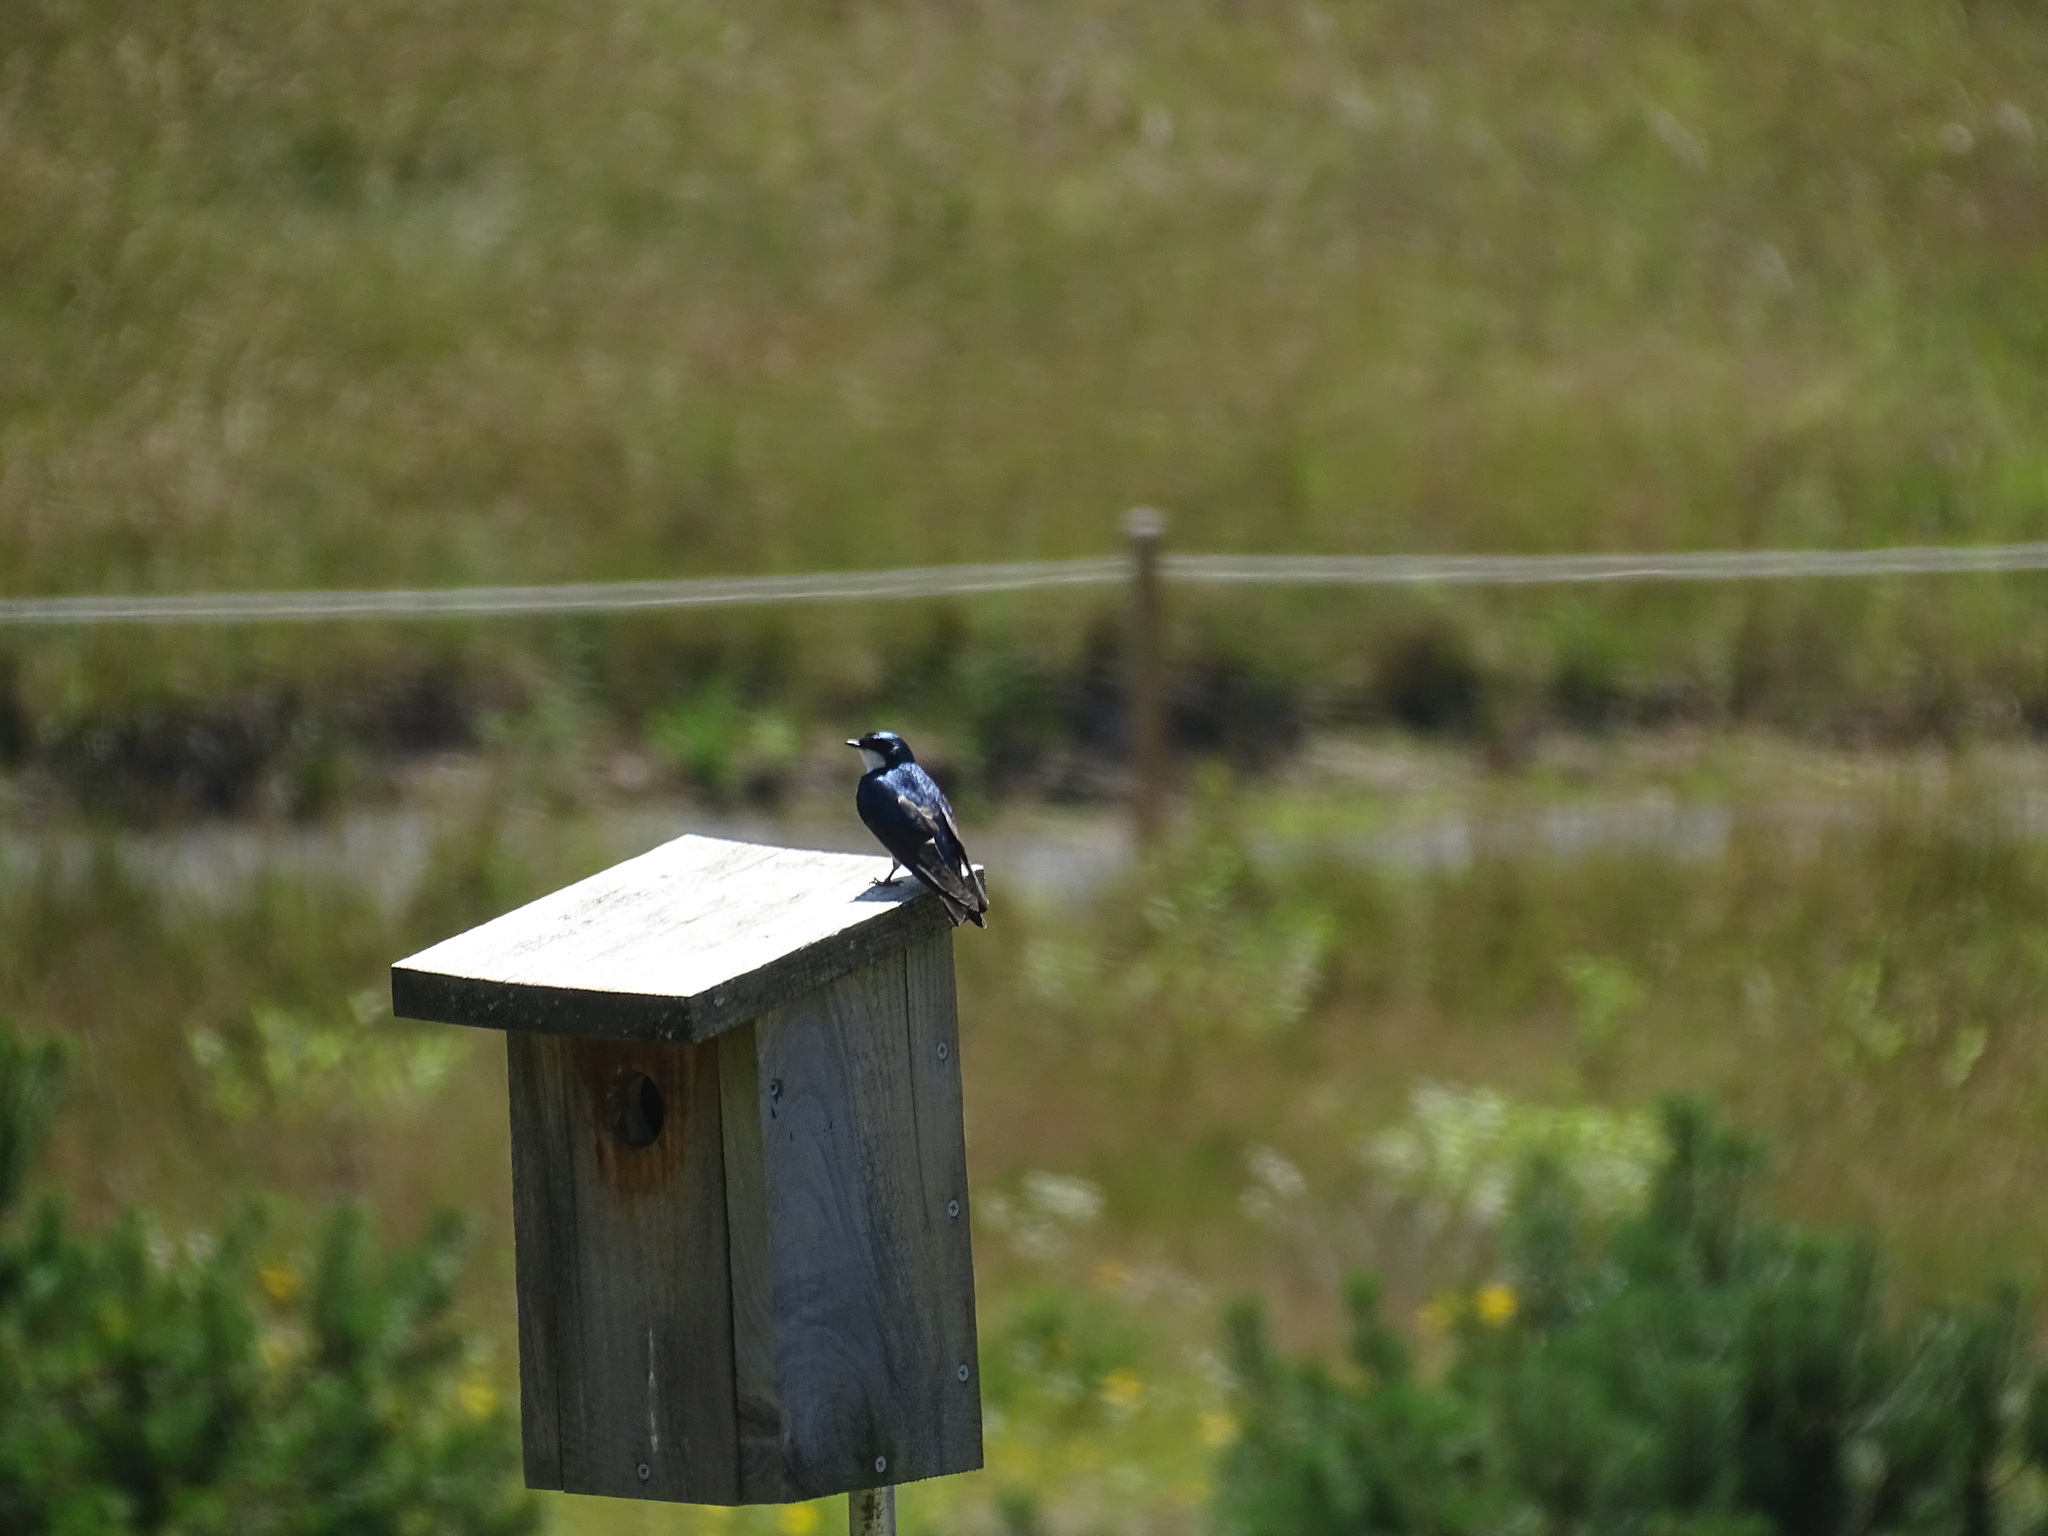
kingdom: Animalia
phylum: Chordata
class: Aves
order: Passeriformes
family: Hirundinidae
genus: Tachycineta
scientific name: Tachycineta bicolor
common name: Tree swallow
